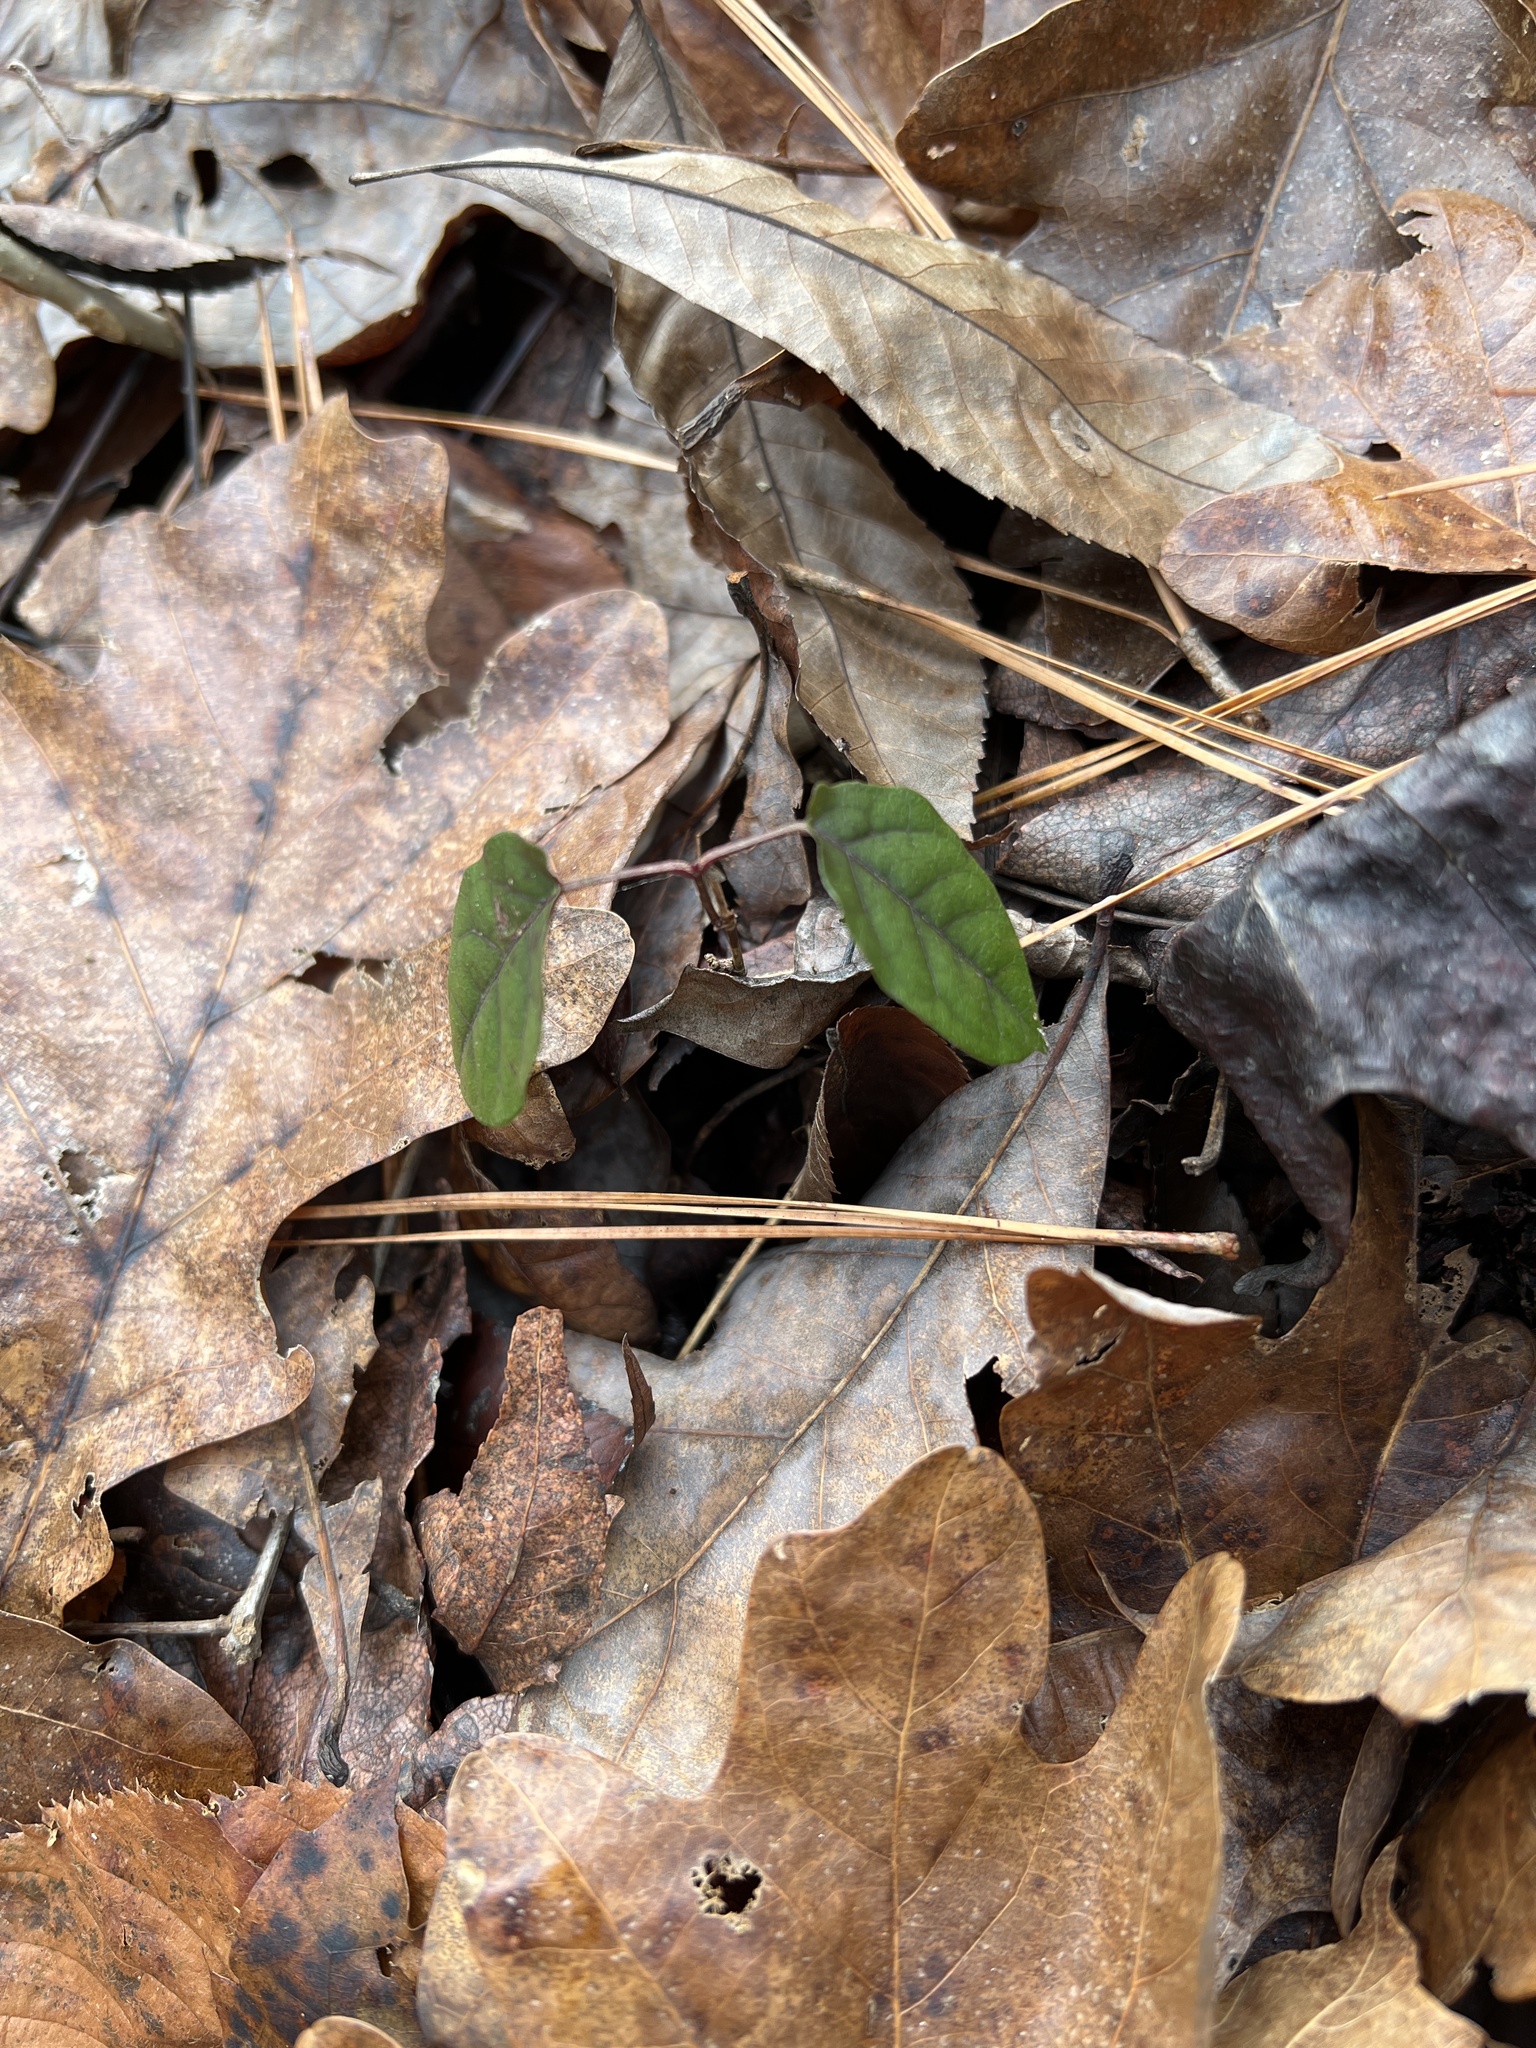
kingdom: Plantae
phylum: Tracheophyta
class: Magnoliopsida
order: Lamiales
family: Bignoniaceae
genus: Bignonia
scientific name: Bignonia capreolata
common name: Crossvine
